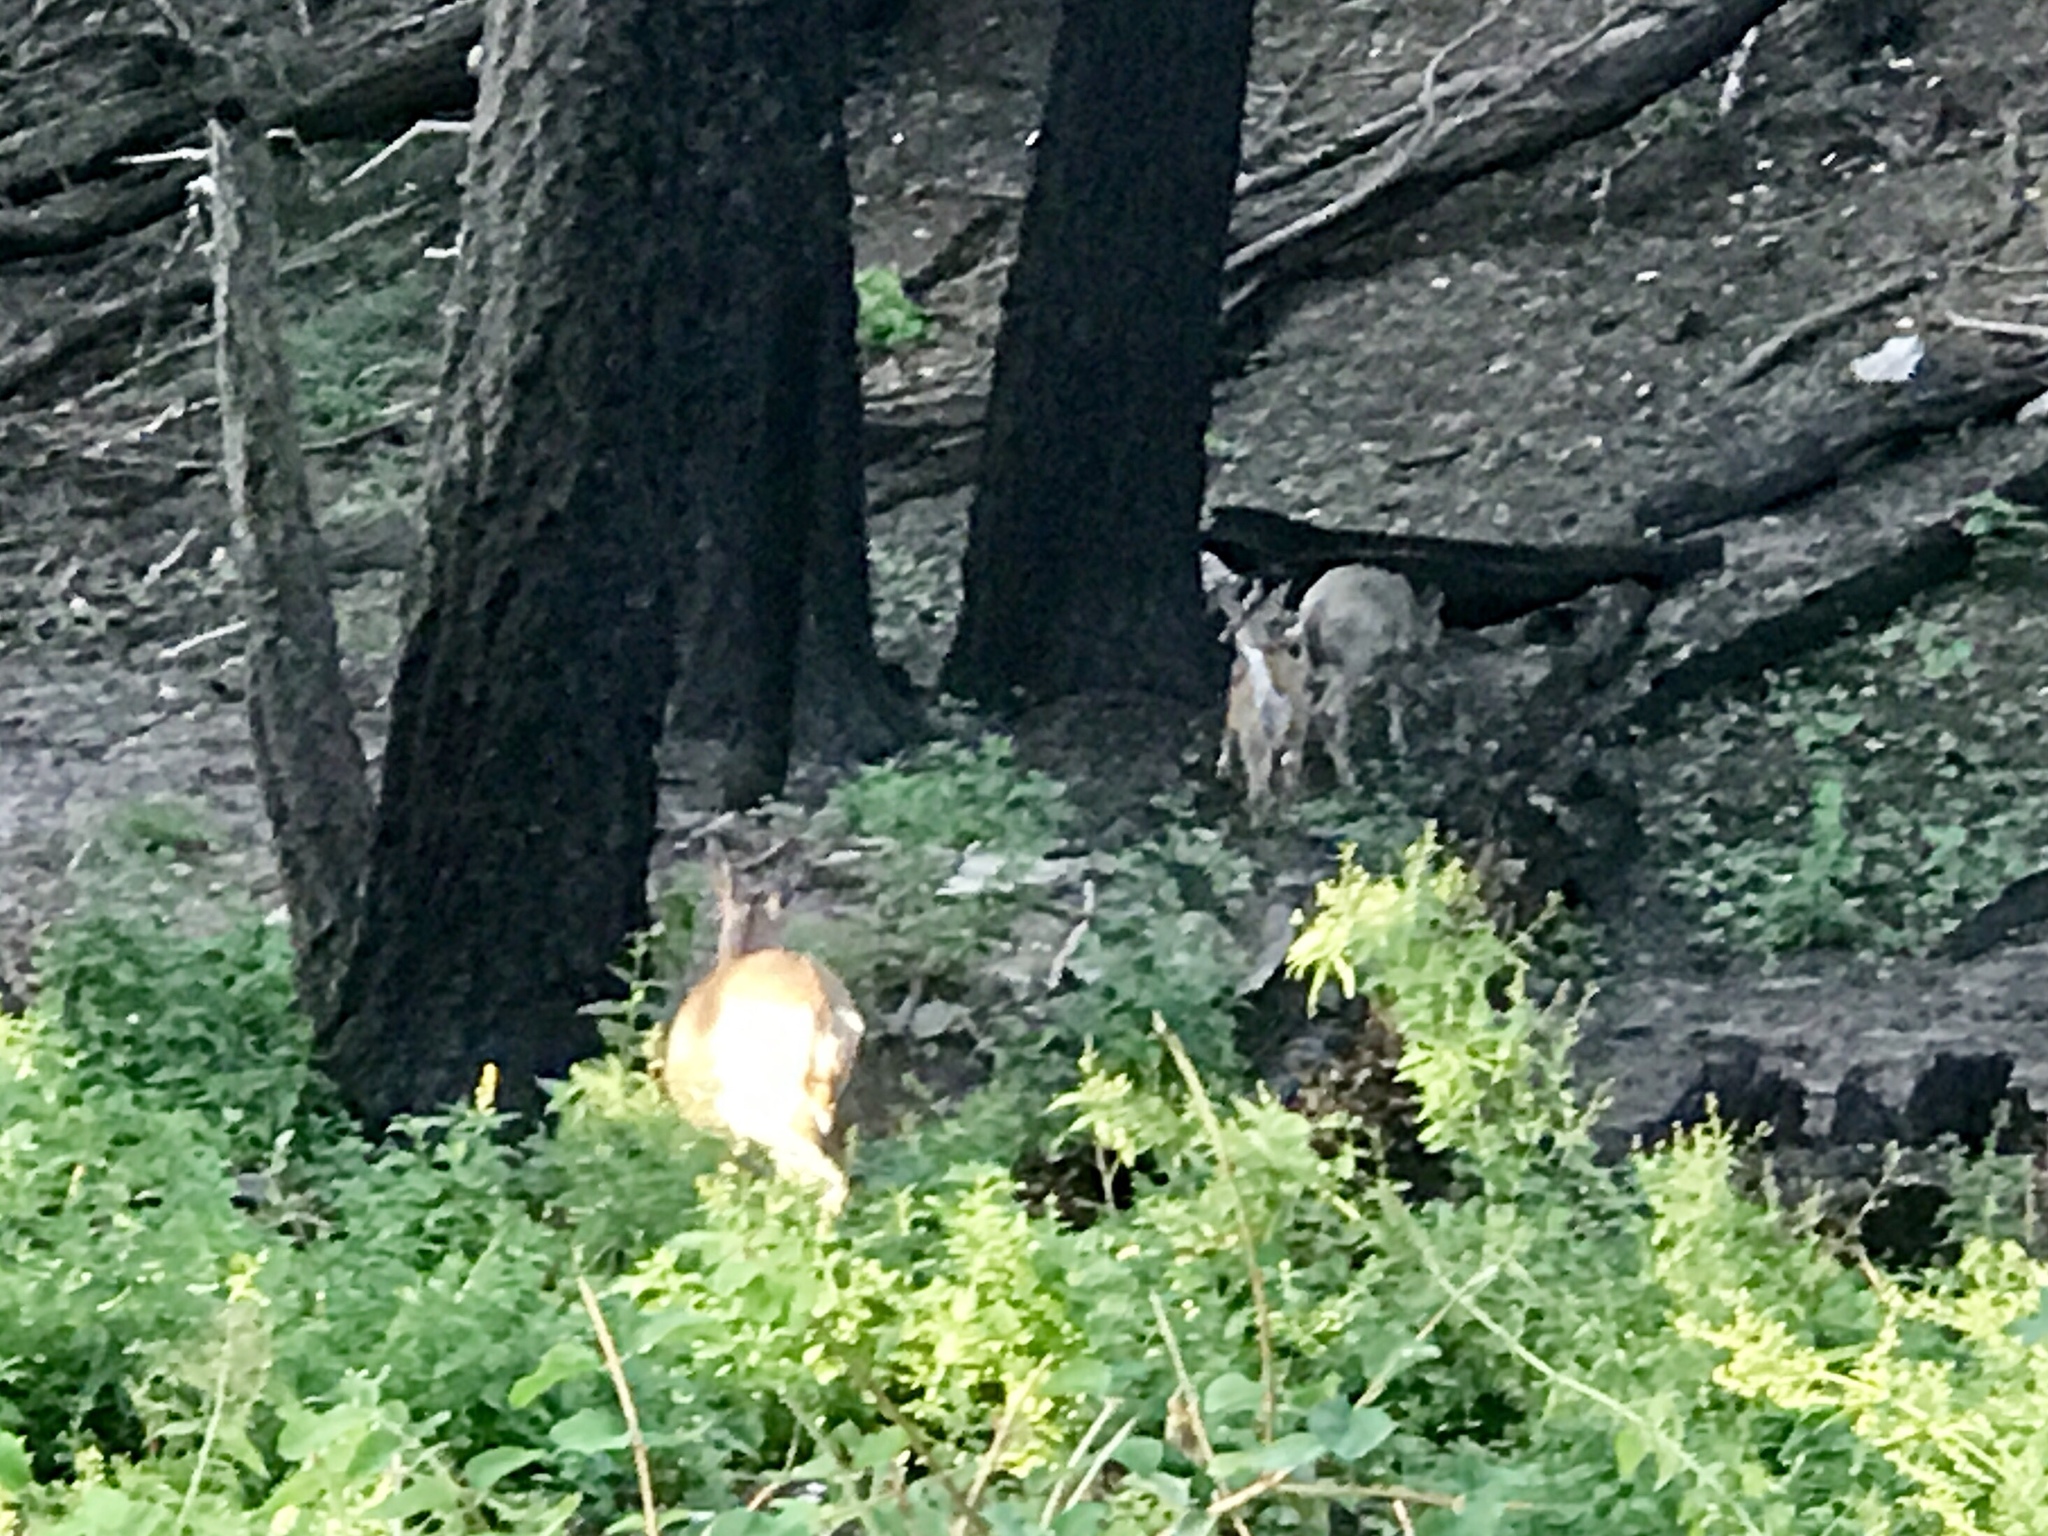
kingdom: Animalia
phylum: Chordata
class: Mammalia
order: Artiodactyla
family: Cervidae
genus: Odocoileus
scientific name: Odocoileus virginianus
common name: White-tailed deer
